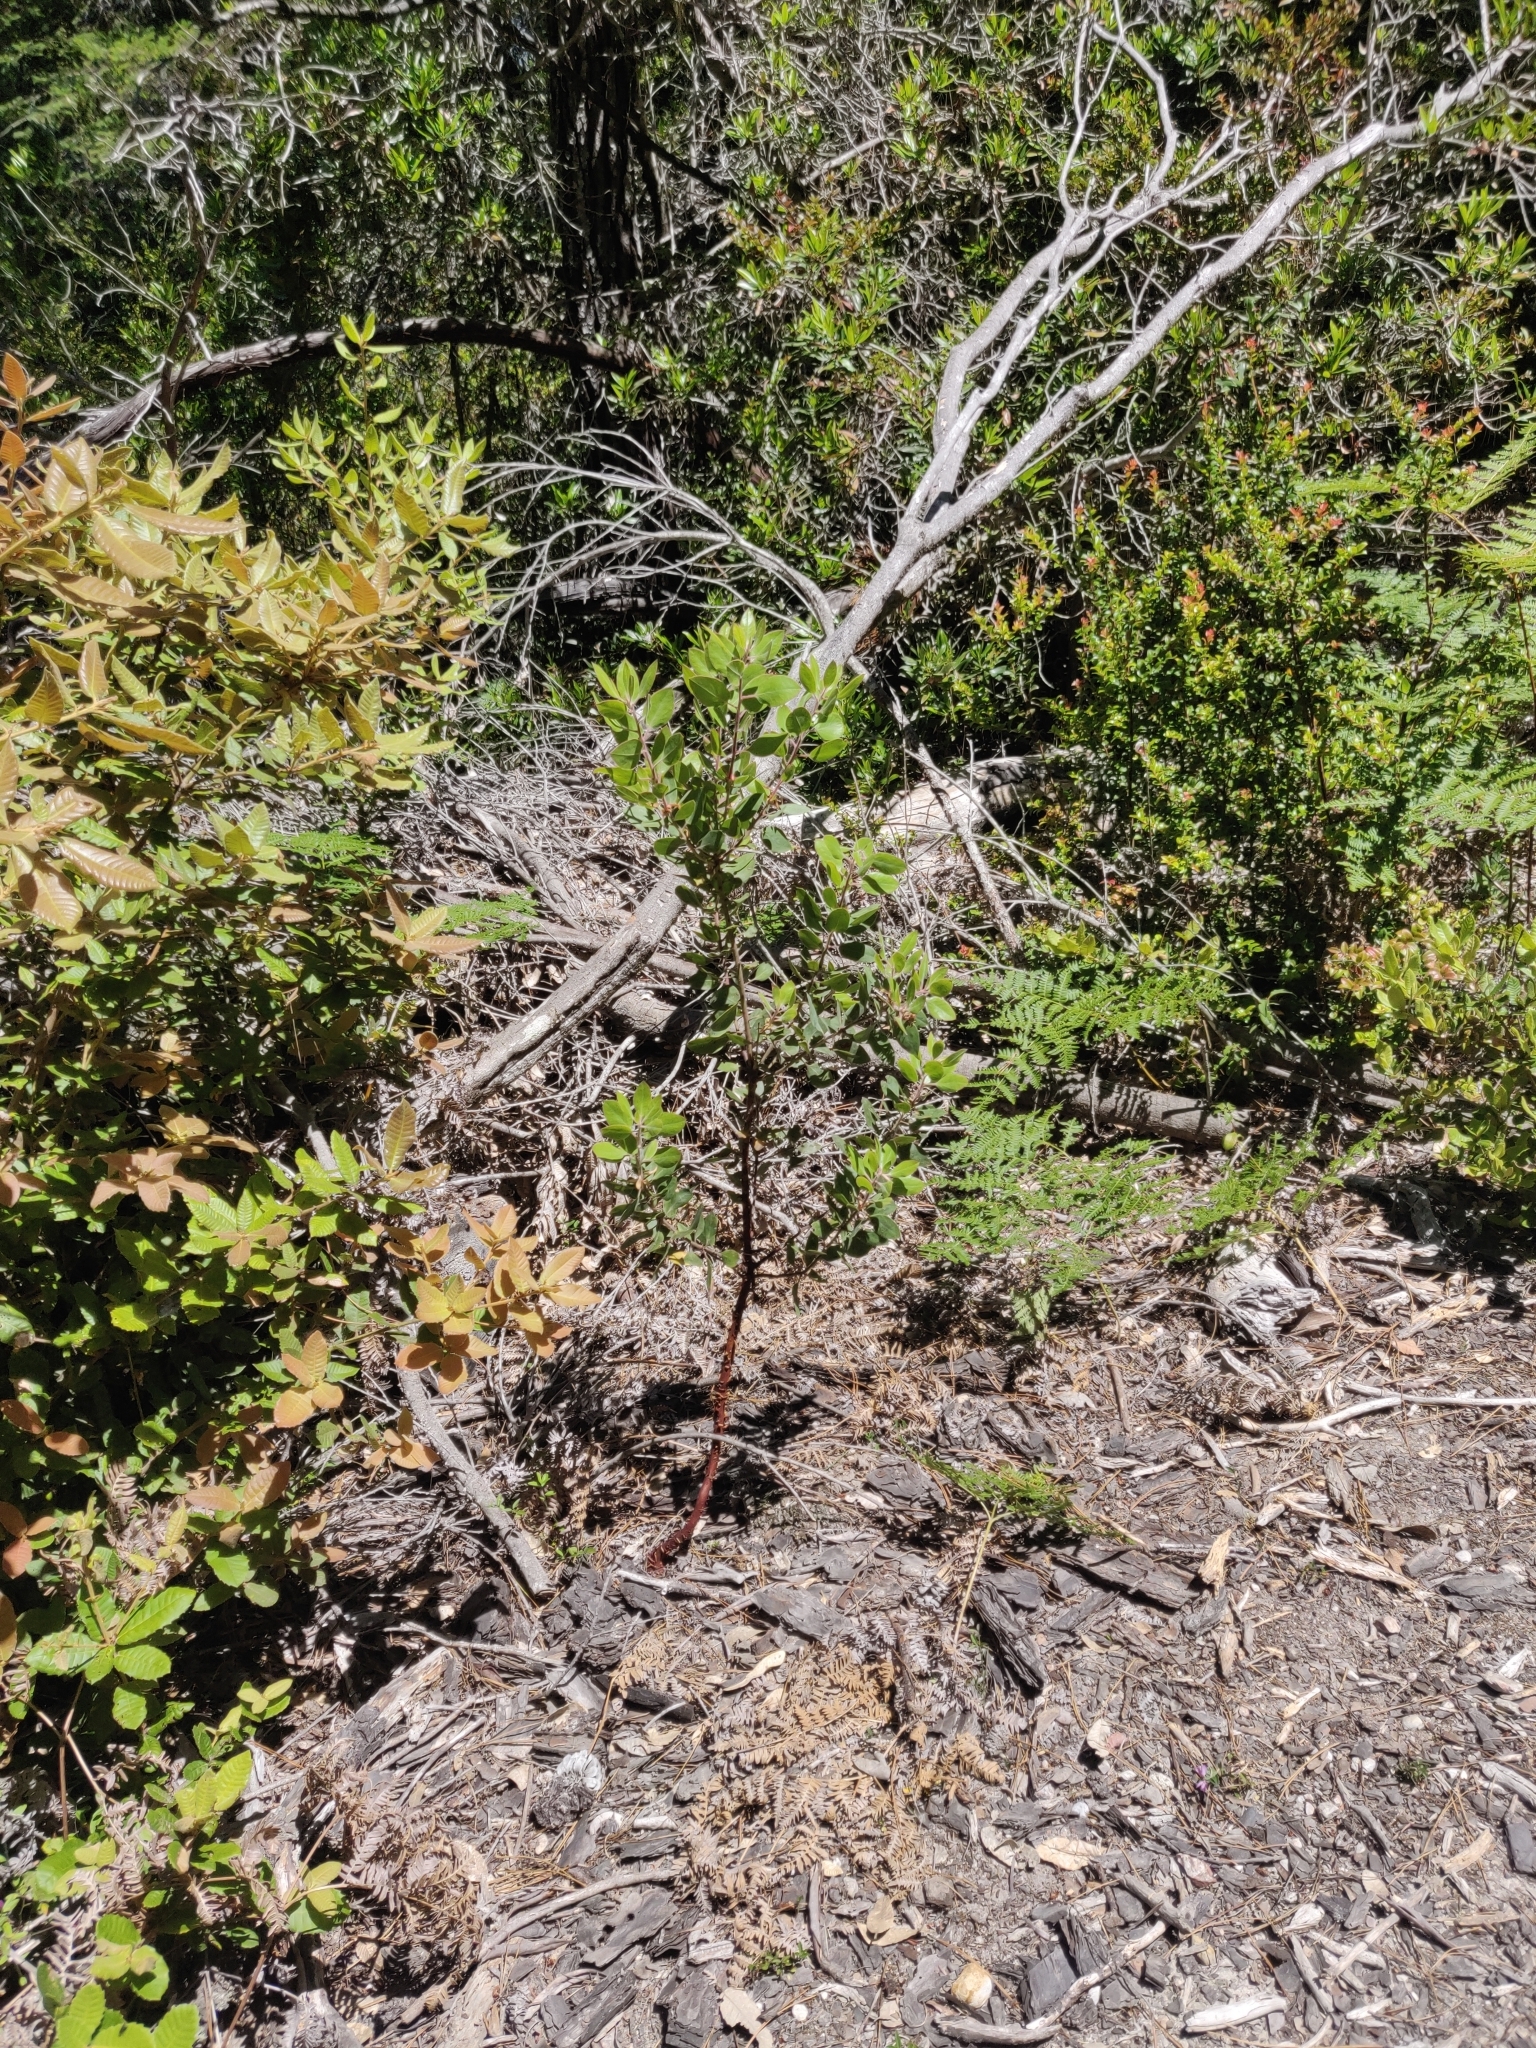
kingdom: Plantae
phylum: Tracheophyta
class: Magnoliopsida
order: Ericales
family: Ericaceae
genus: Arctostaphylos
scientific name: Arctostaphylos columbiana
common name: Bristly bearberry
